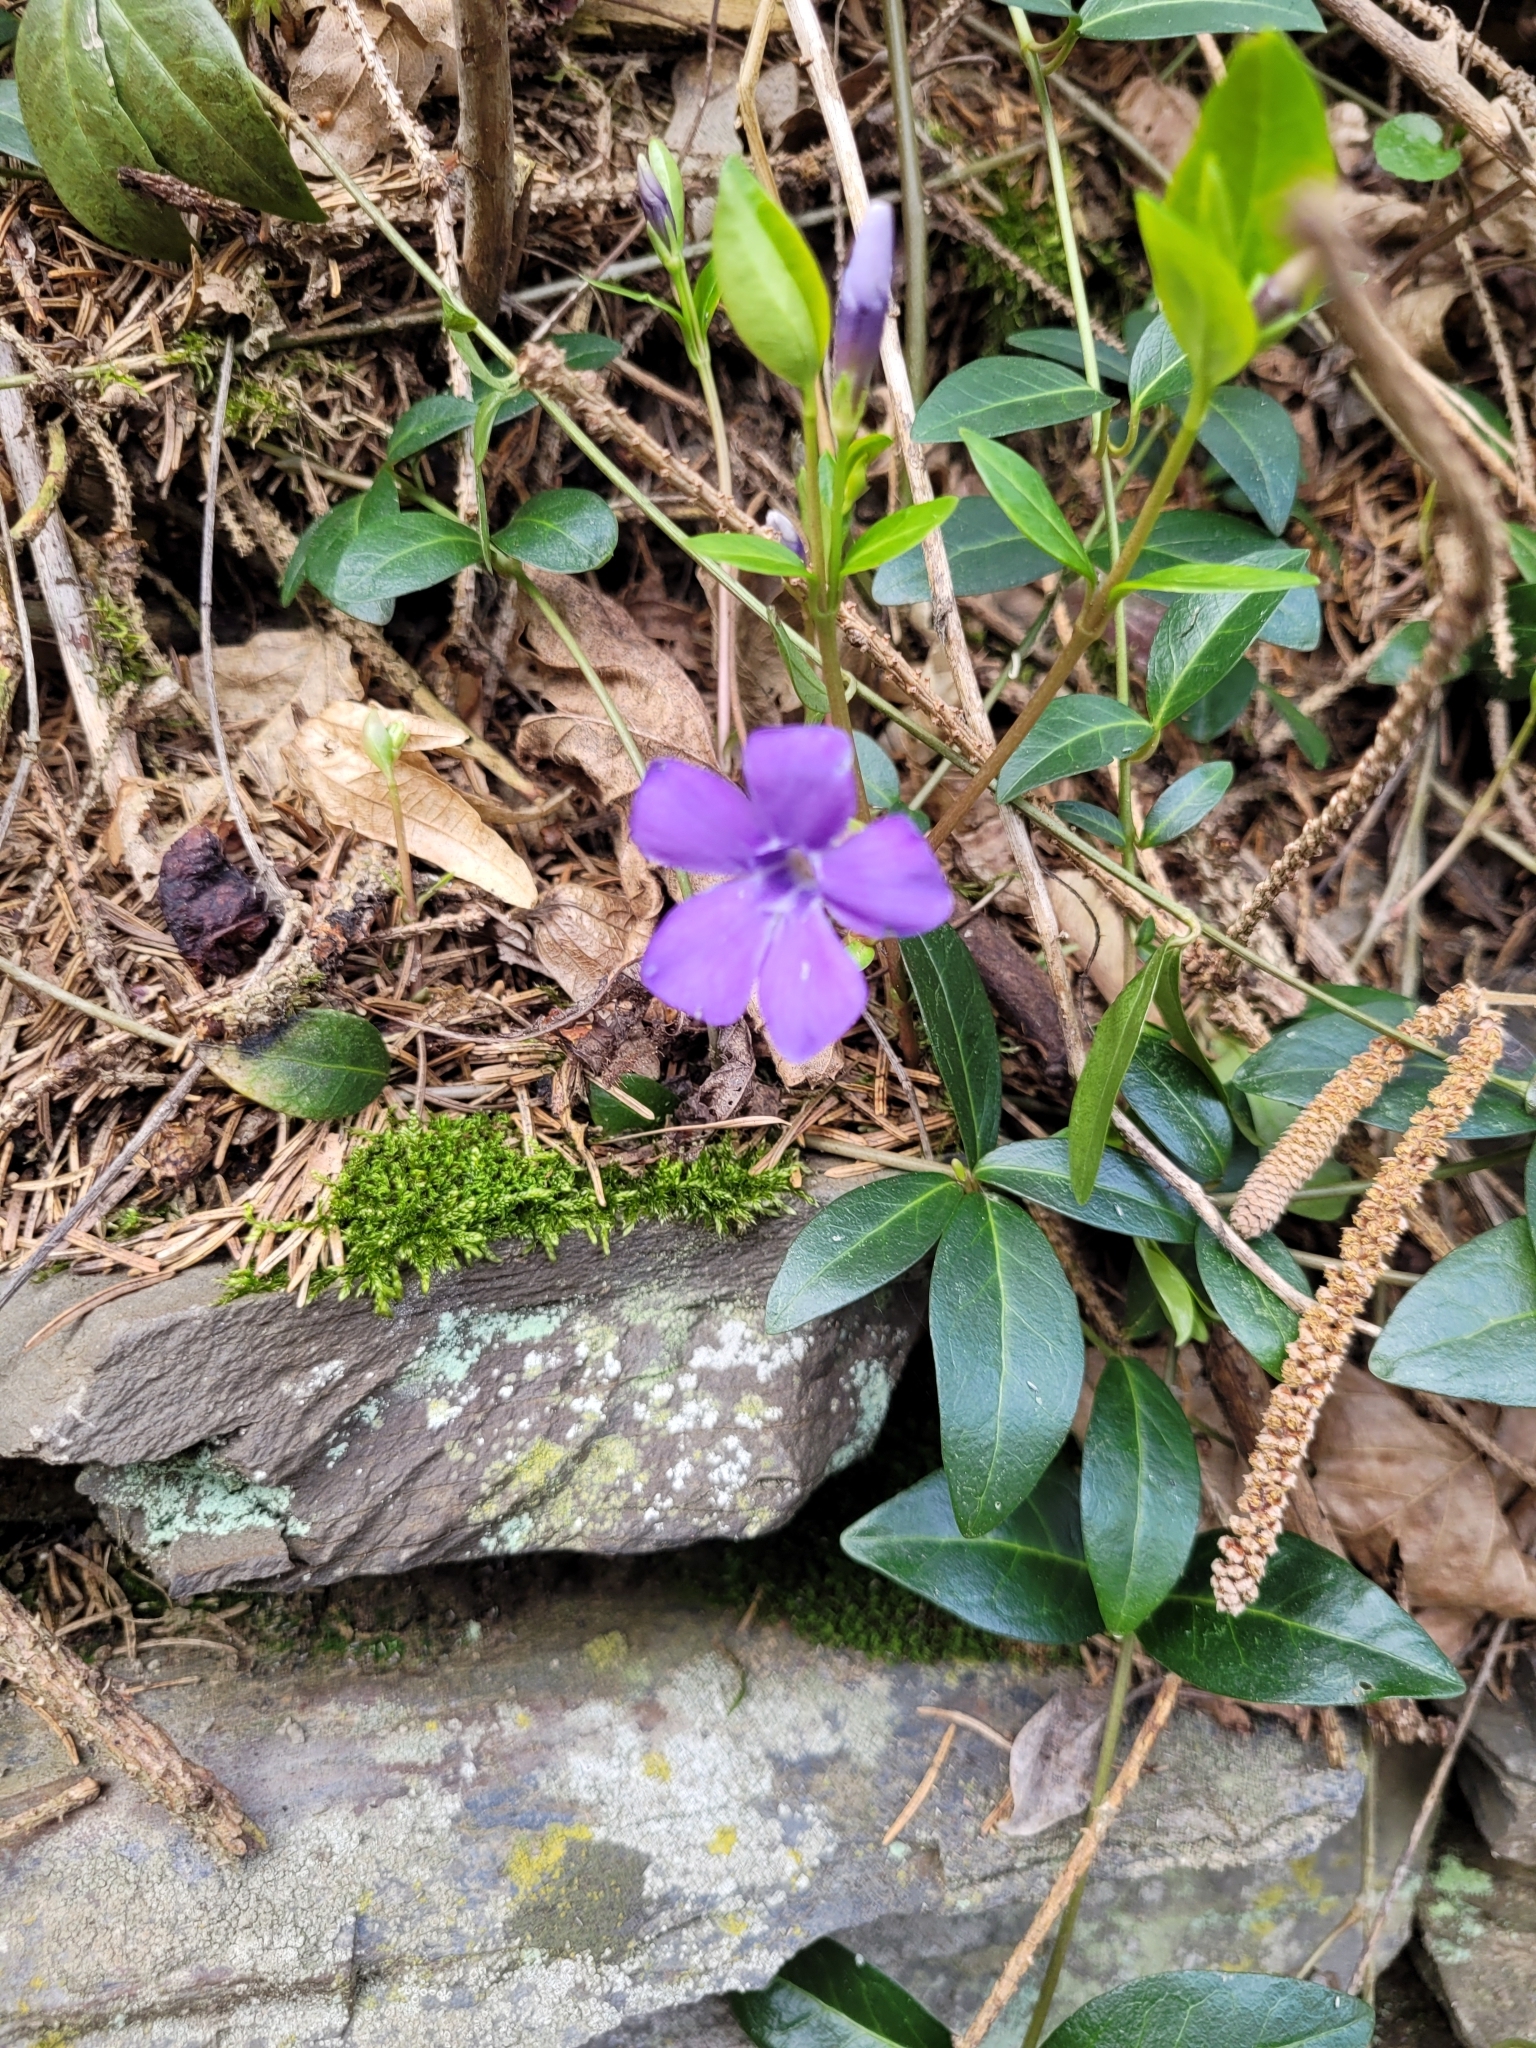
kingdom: Plantae
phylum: Tracheophyta
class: Magnoliopsida
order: Gentianales
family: Apocynaceae
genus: Vinca
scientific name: Vinca minor
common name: Lesser periwinkle
